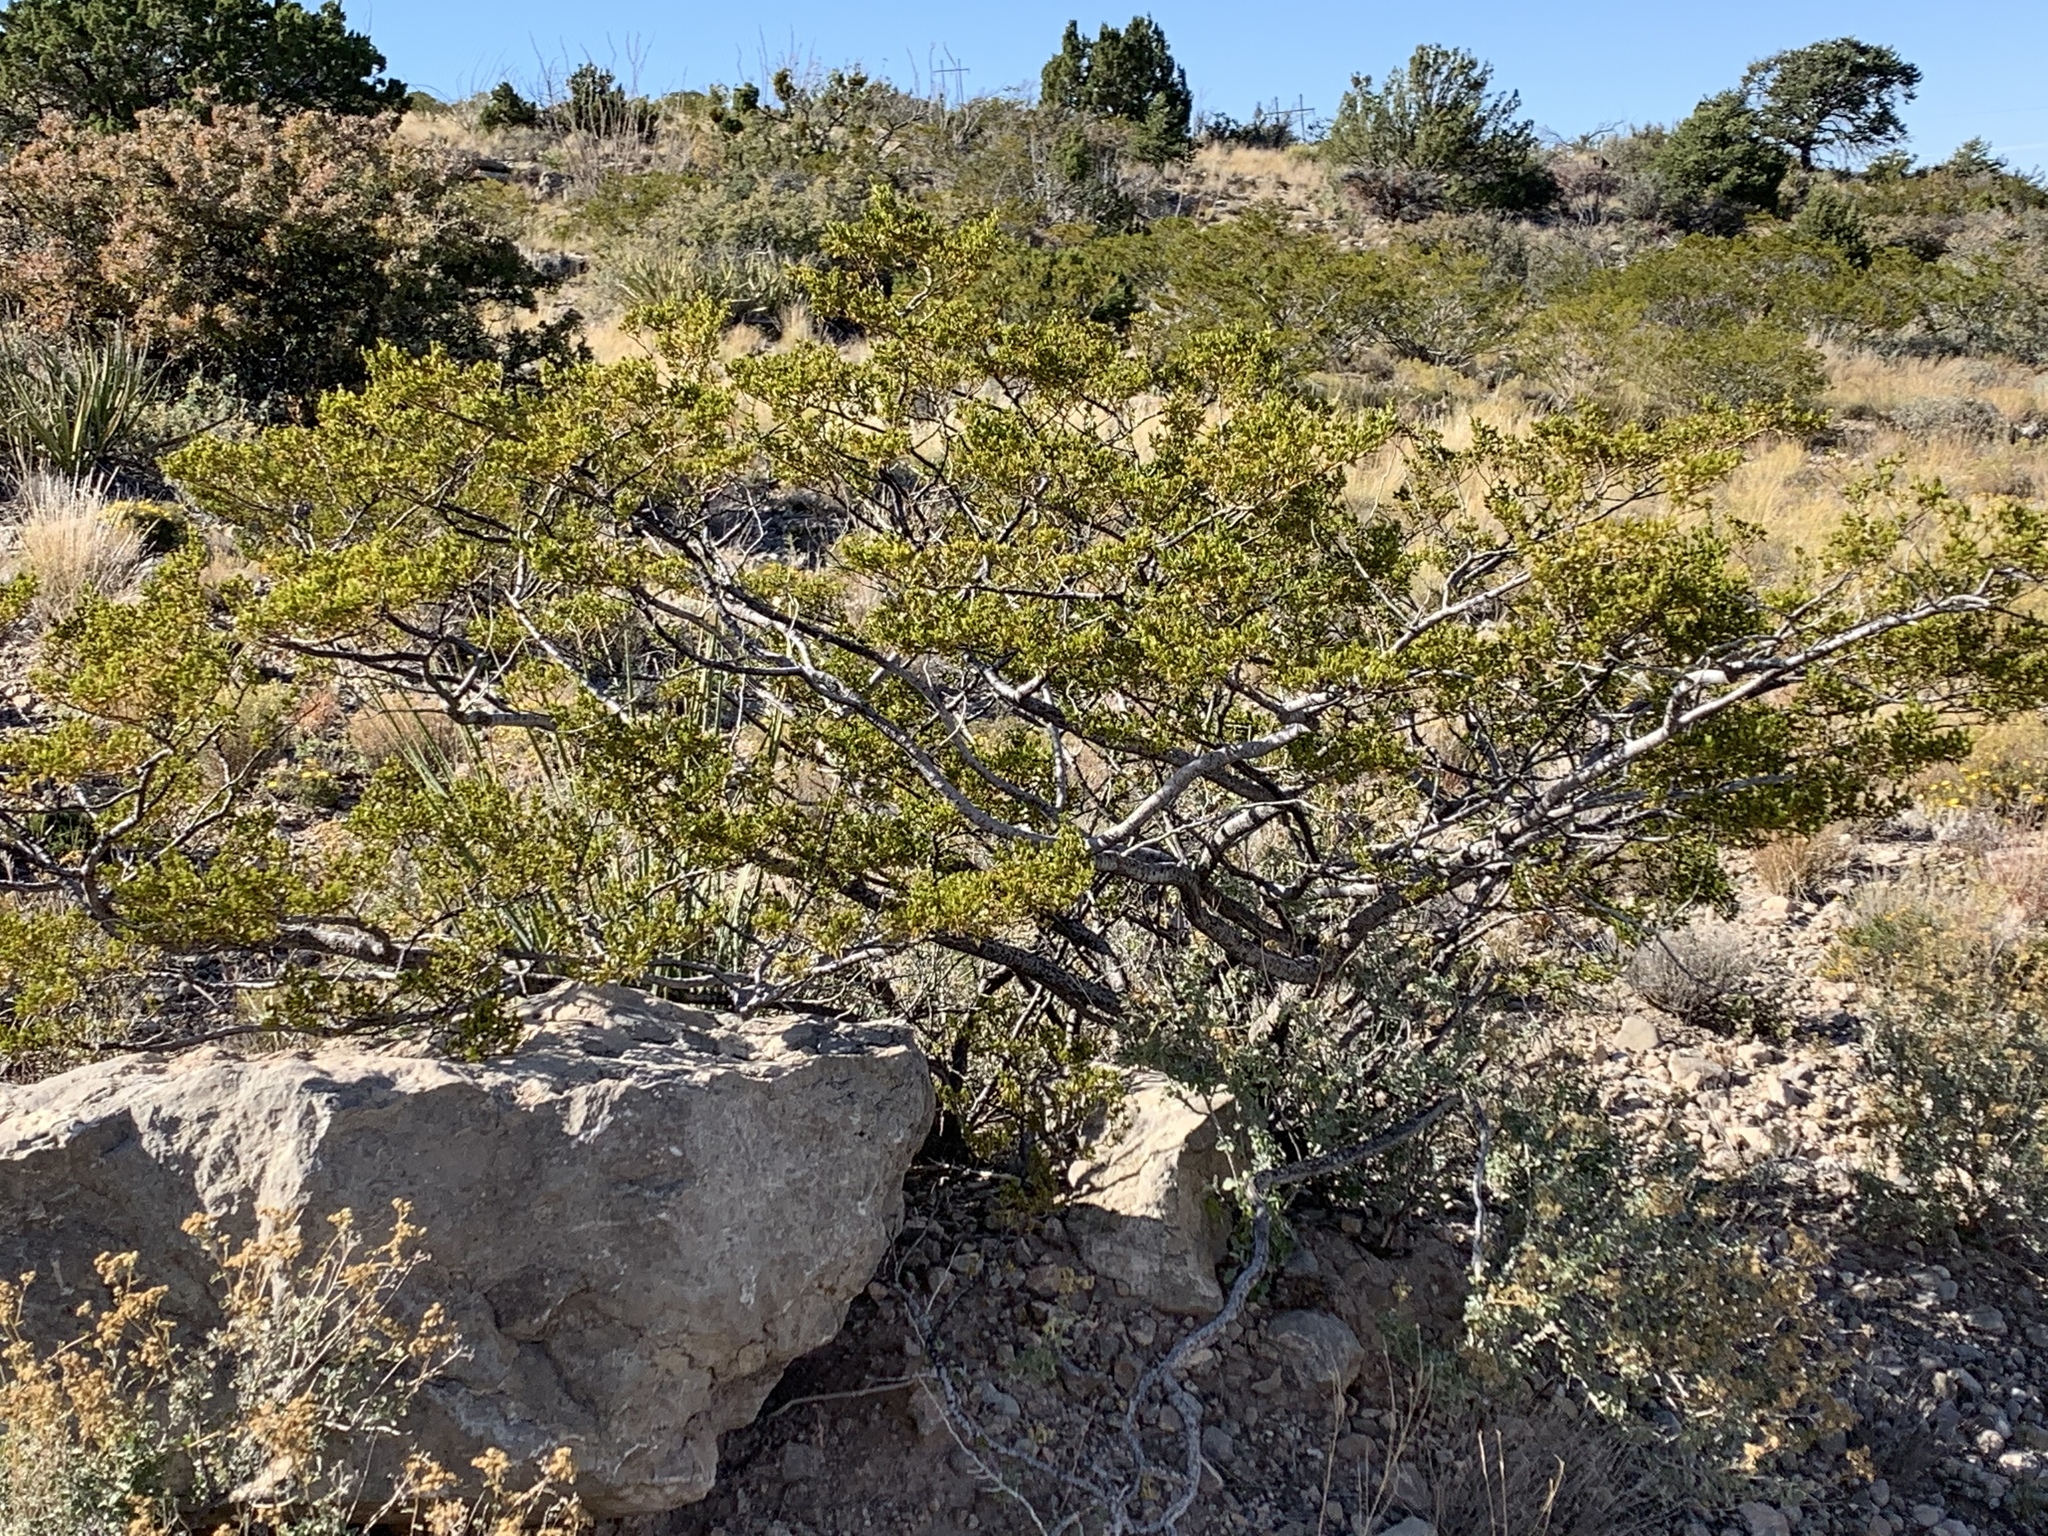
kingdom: Plantae
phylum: Tracheophyta
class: Magnoliopsida
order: Zygophyllales
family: Zygophyllaceae
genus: Larrea
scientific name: Larrea tridentata
